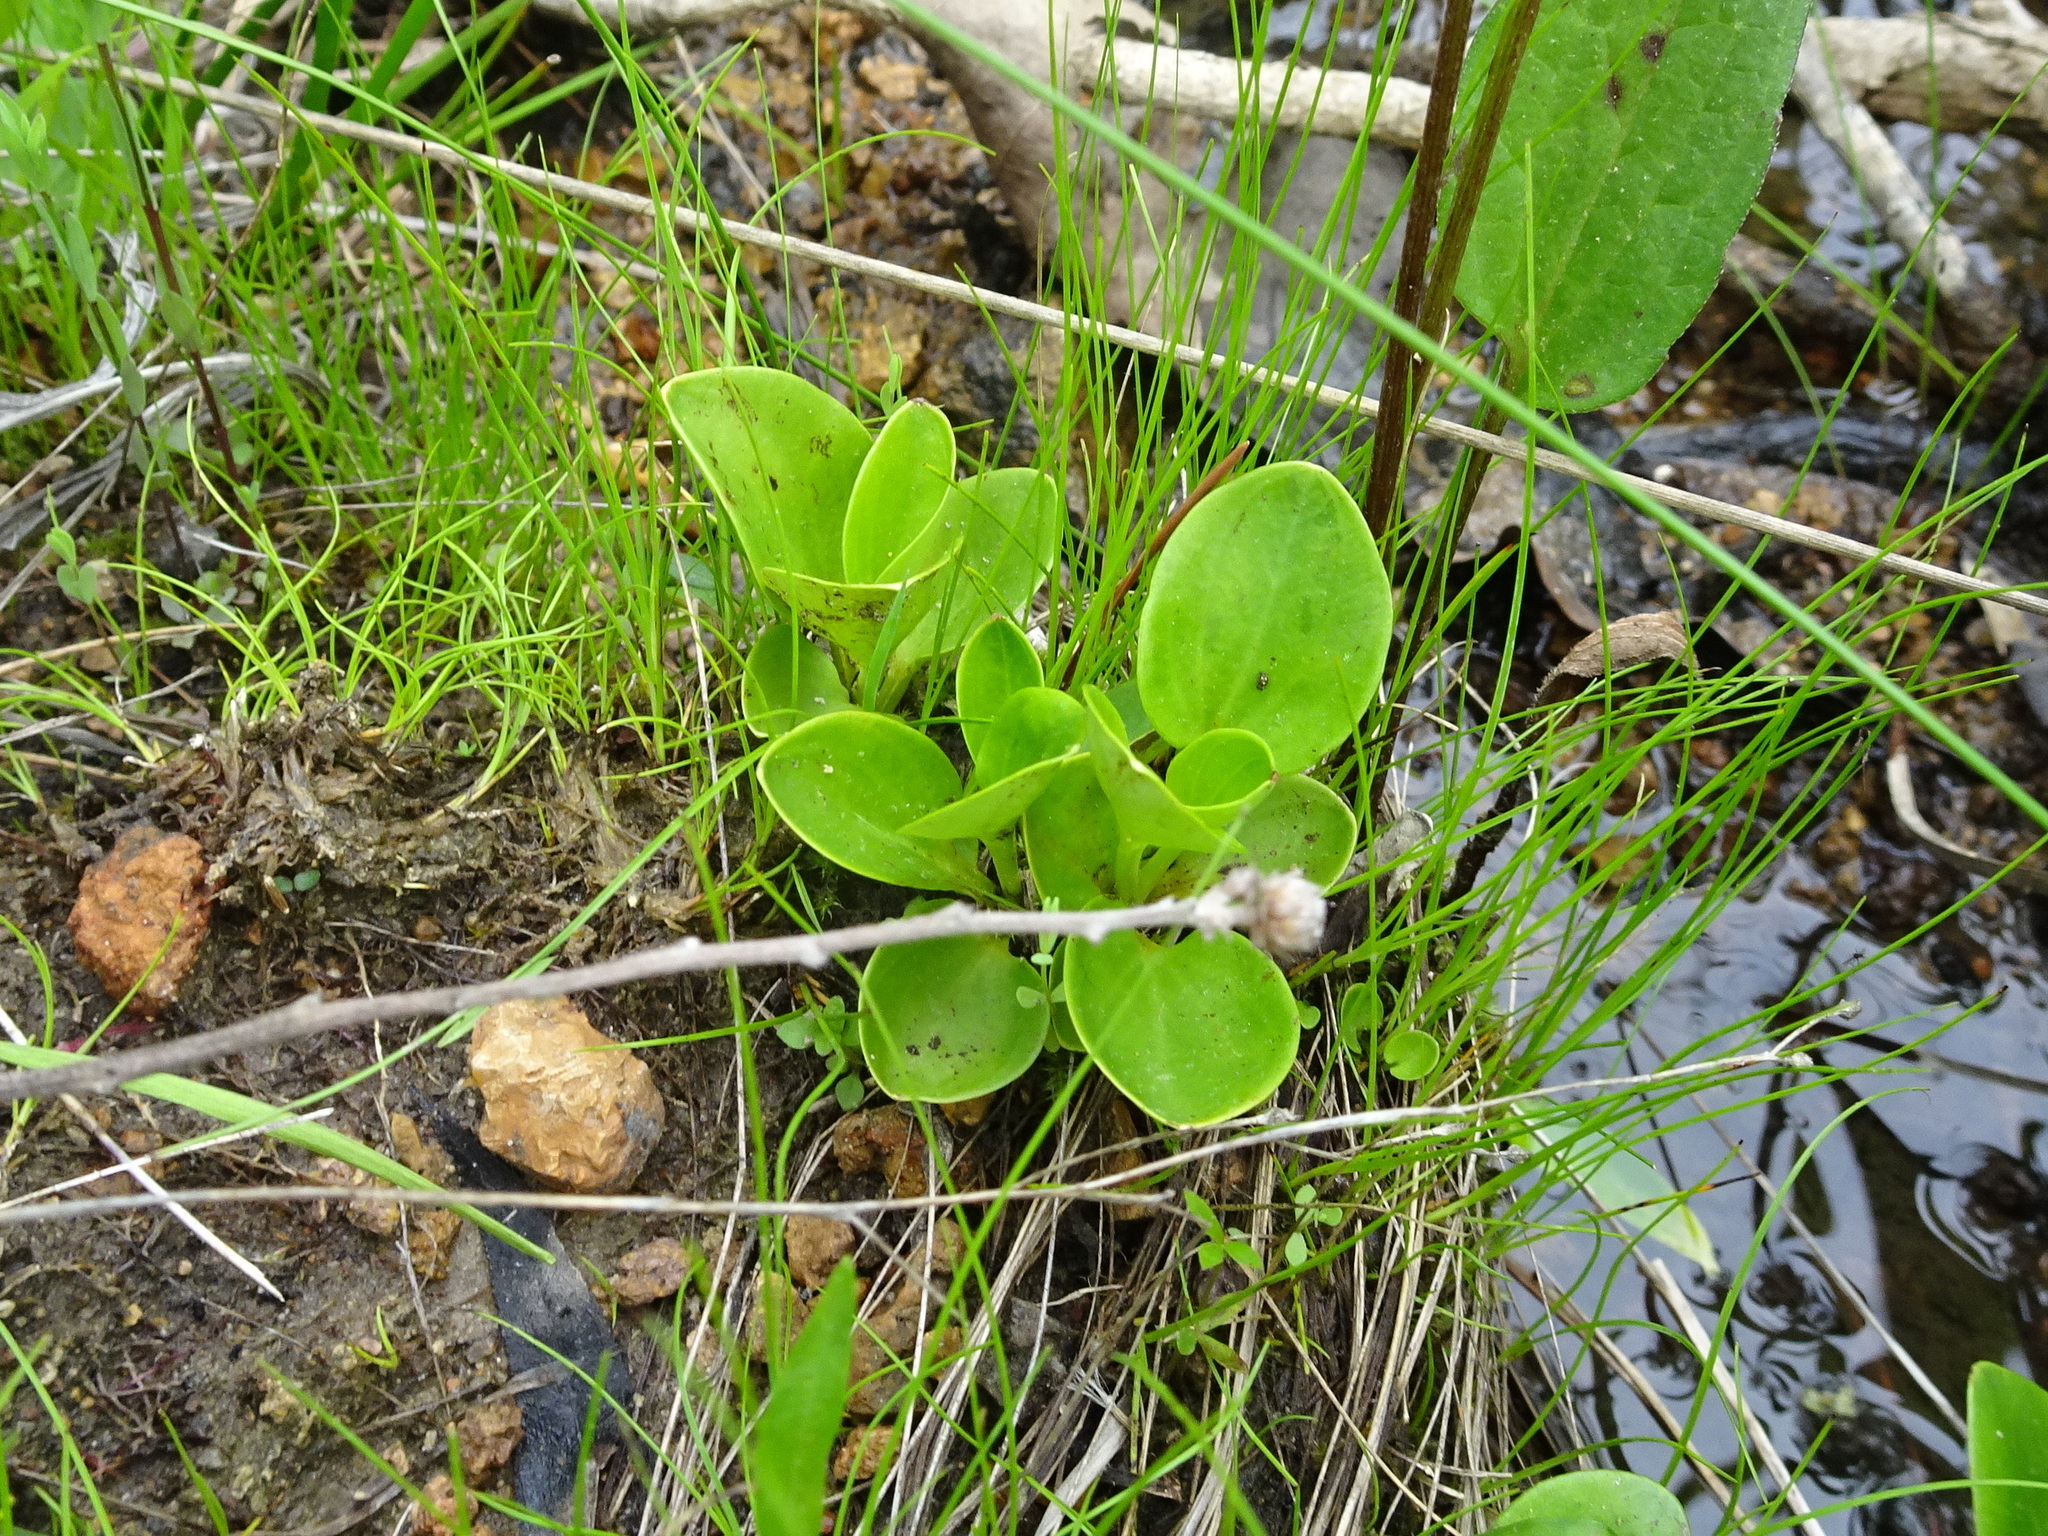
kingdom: Plantae
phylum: Tracheophyta
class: Magnoliopsida
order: Celastrales
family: Parnassiaceae
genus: Parnassia
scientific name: Parnassia grandifolia
